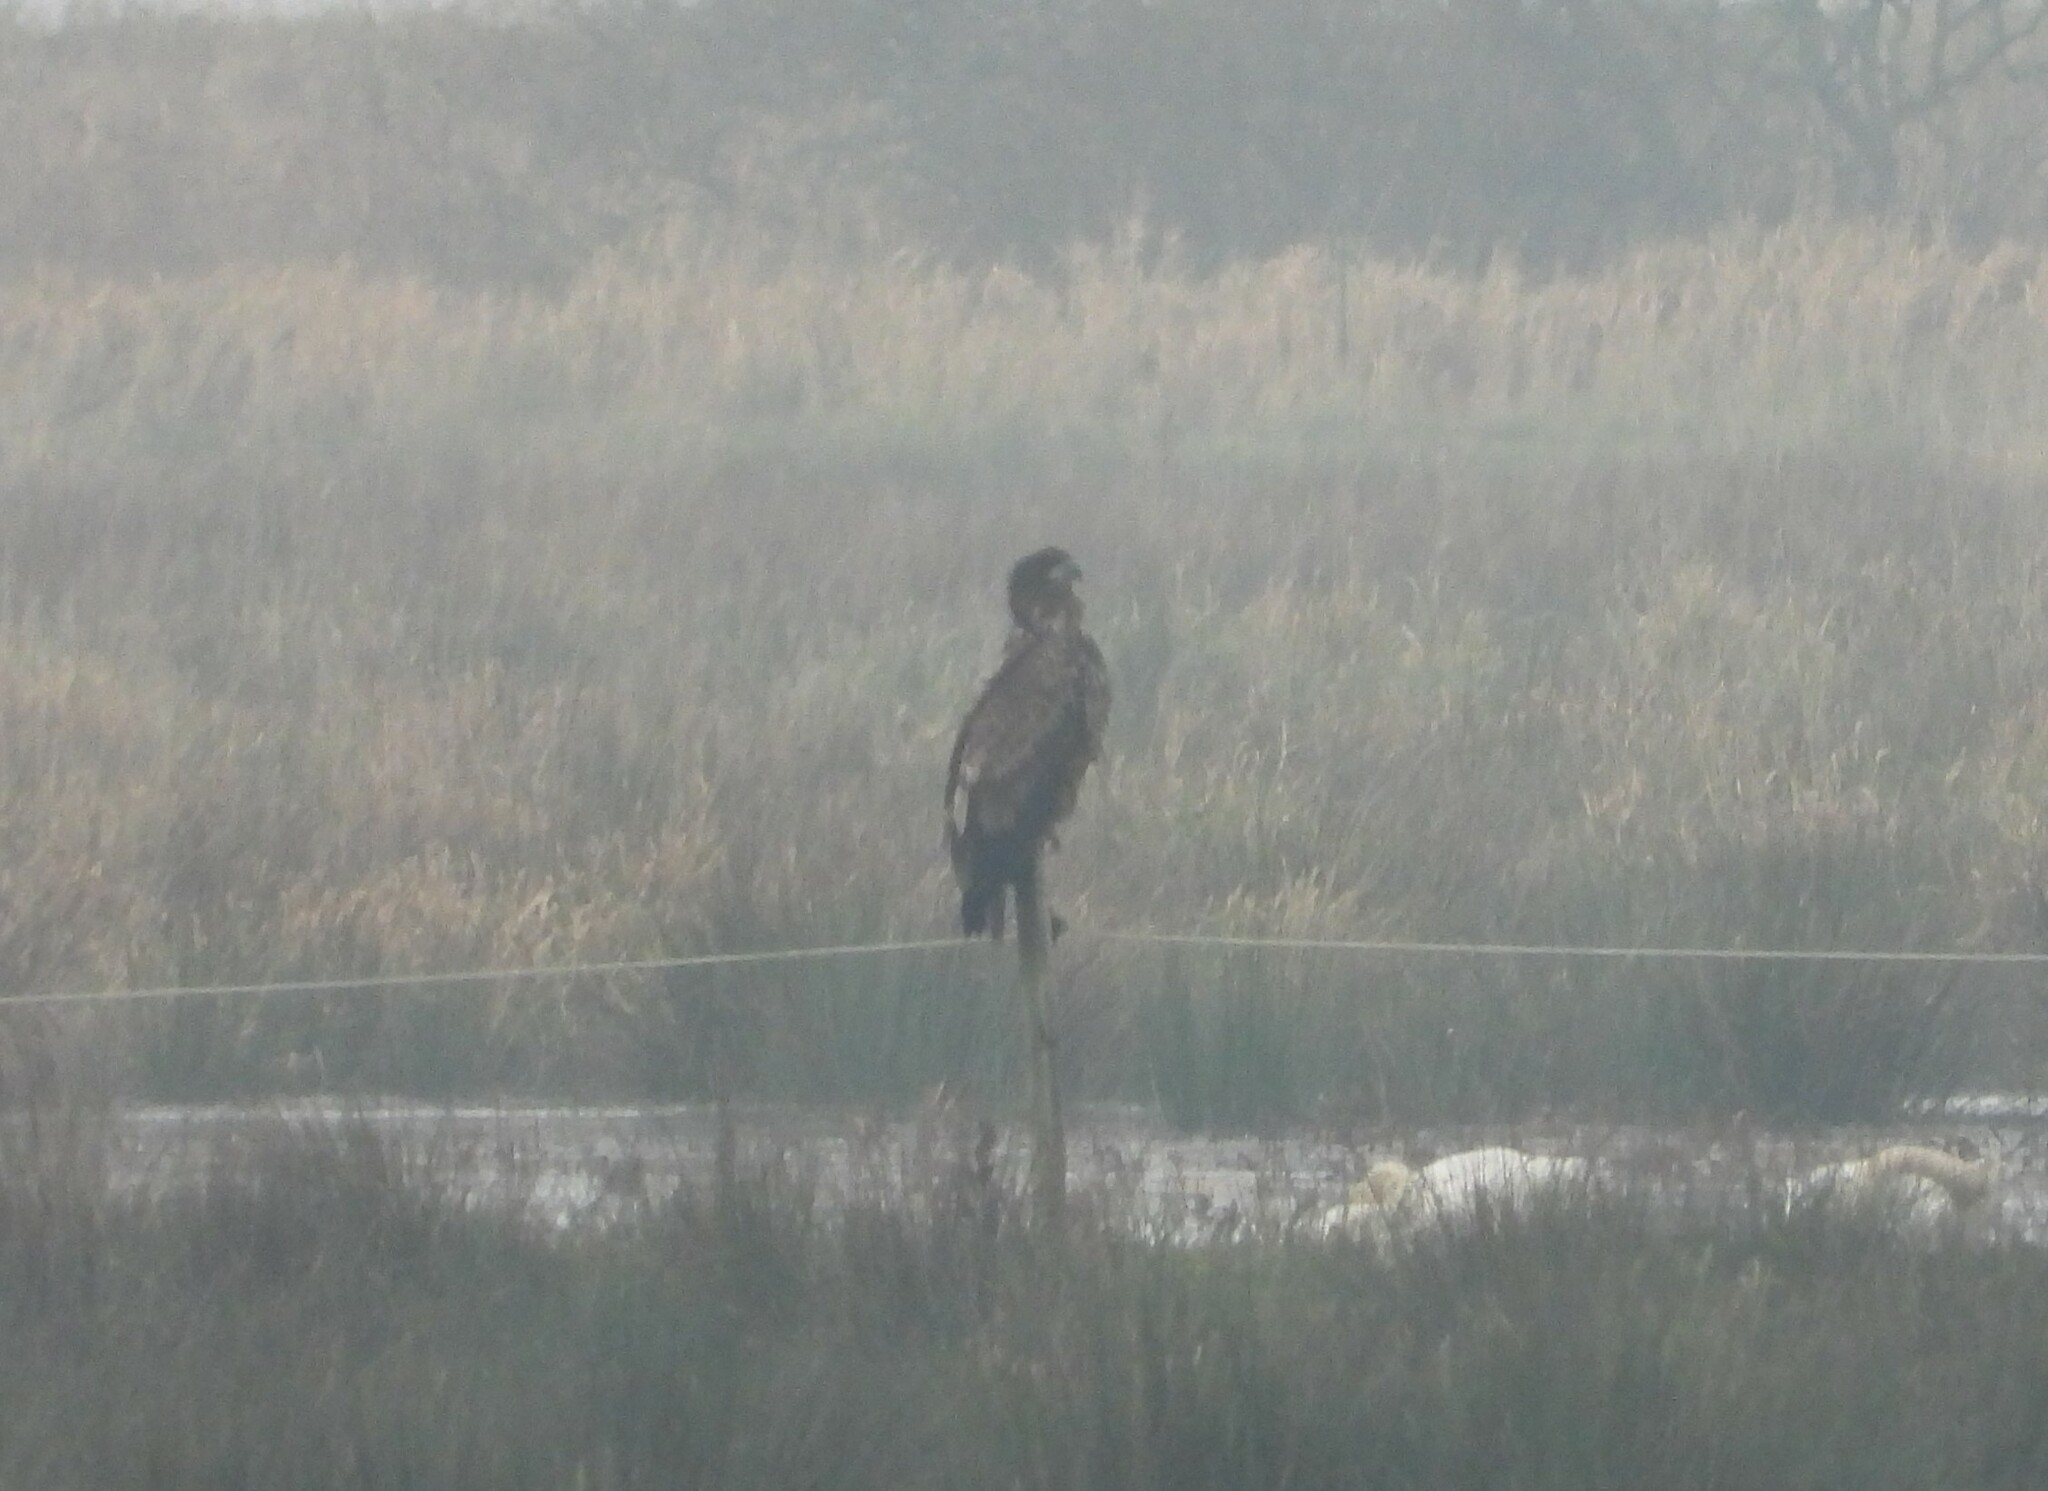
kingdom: Animalia
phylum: Chordata
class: Aves
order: Accipitriformes
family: Accipitridae
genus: Haliaeetus
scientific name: Haliaeetus albicilla
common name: White-tailed eagle
